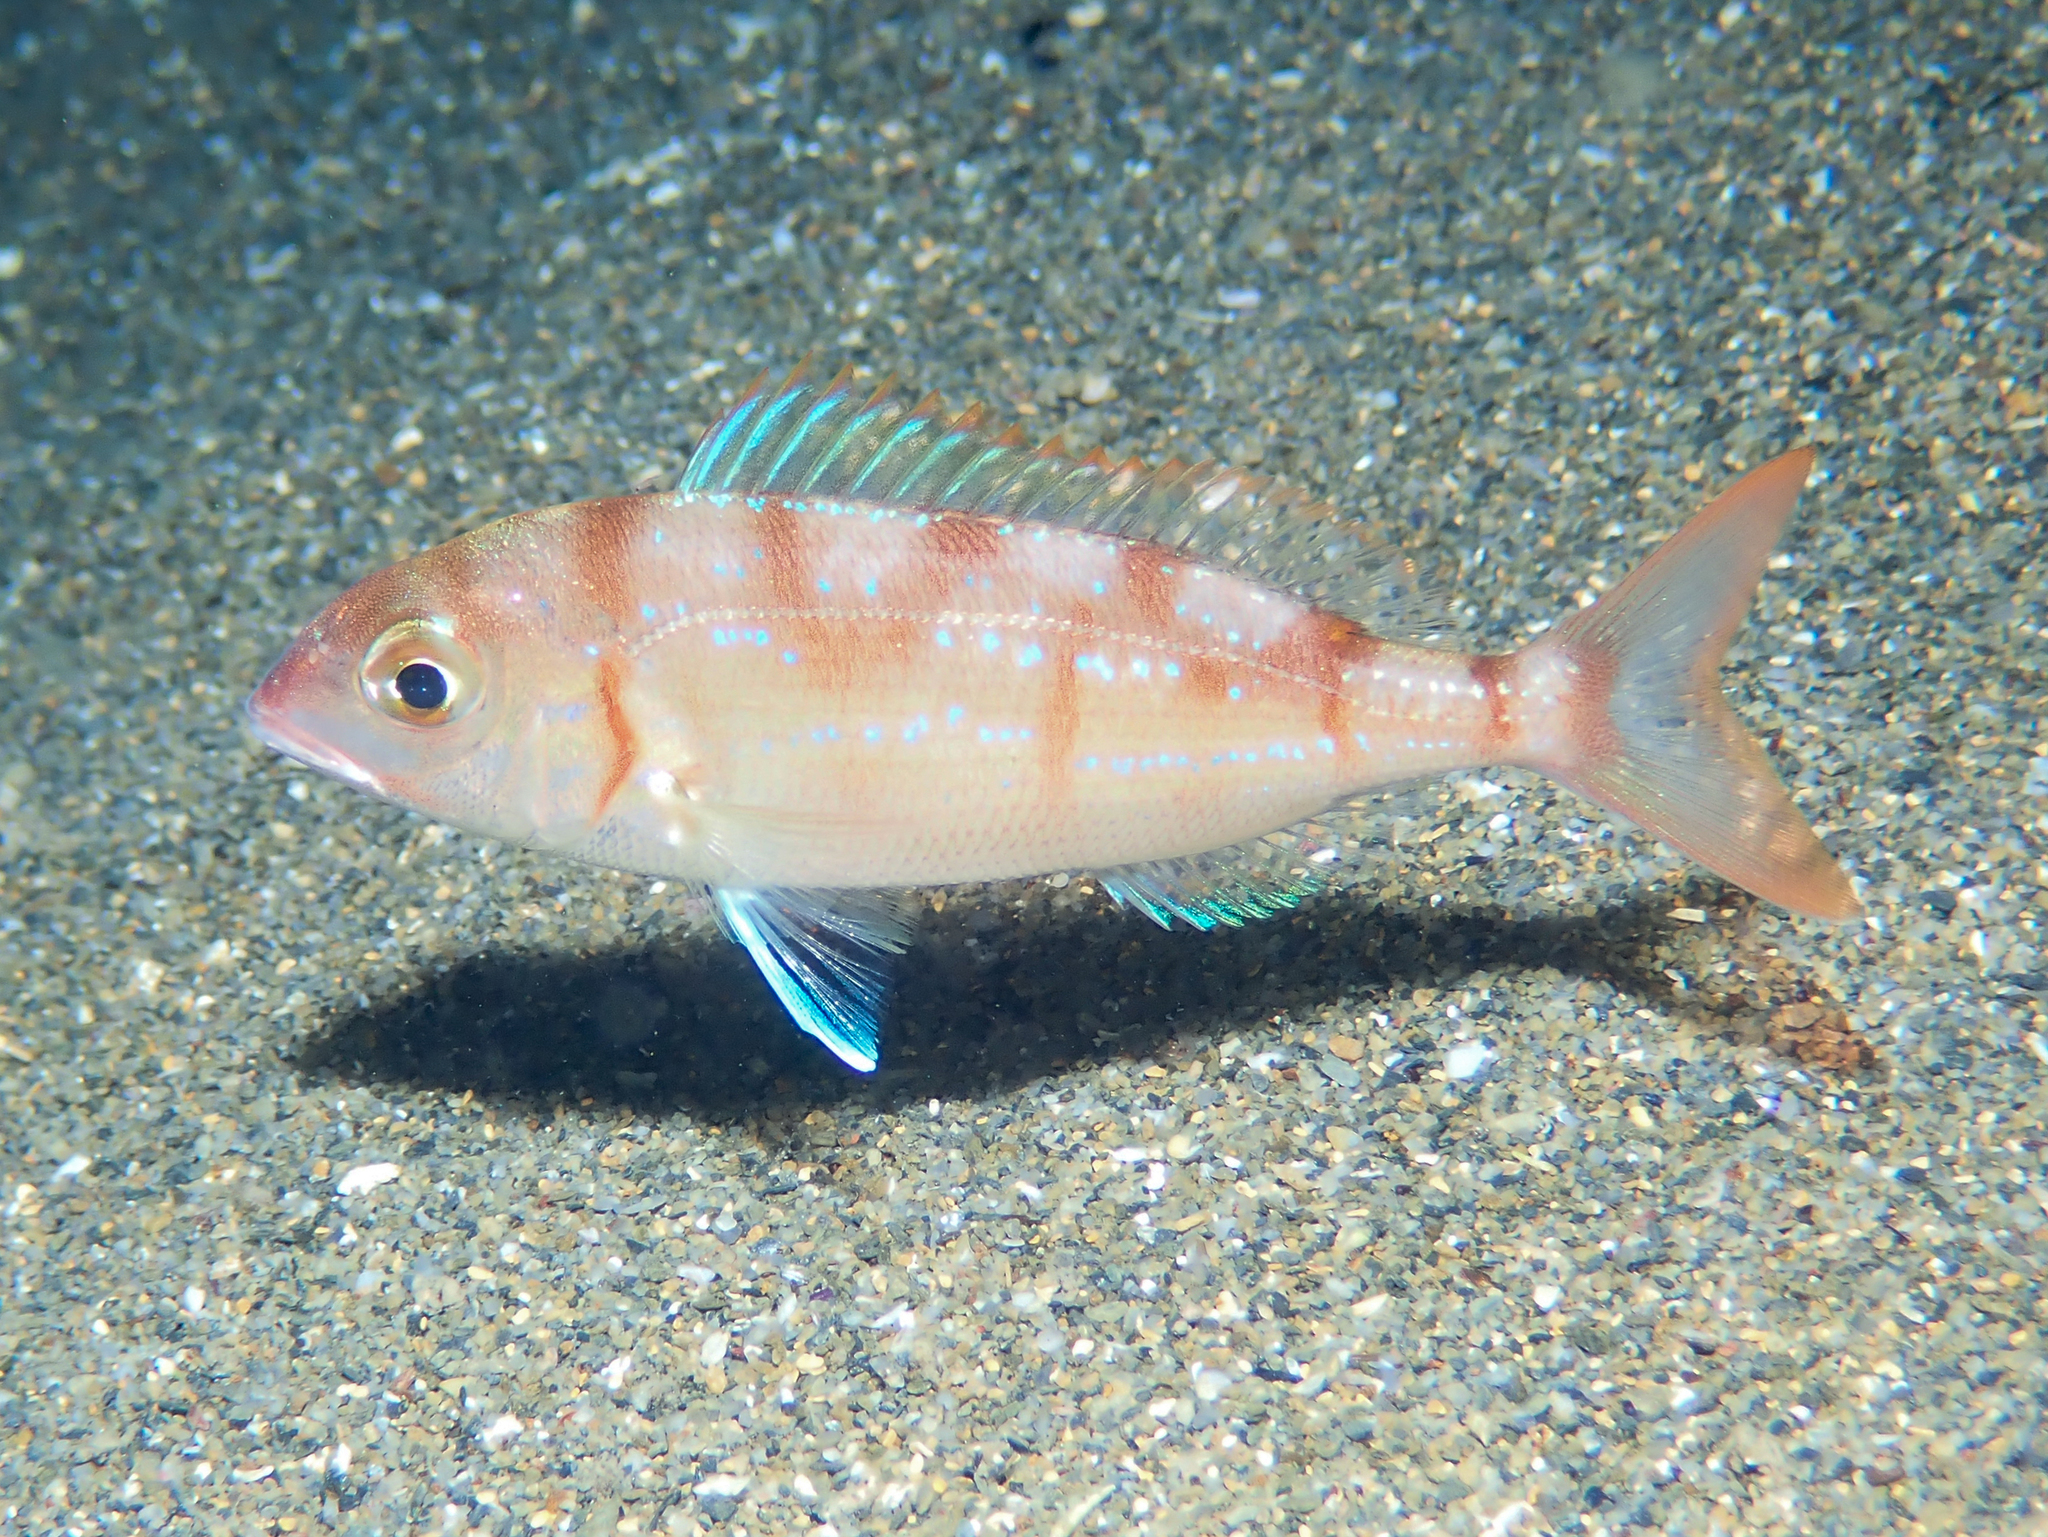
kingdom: Animalia
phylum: Chordata
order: Perciformes
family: Sparidae
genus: Pagellus
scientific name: Pagellus erythrinus
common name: Pandora
